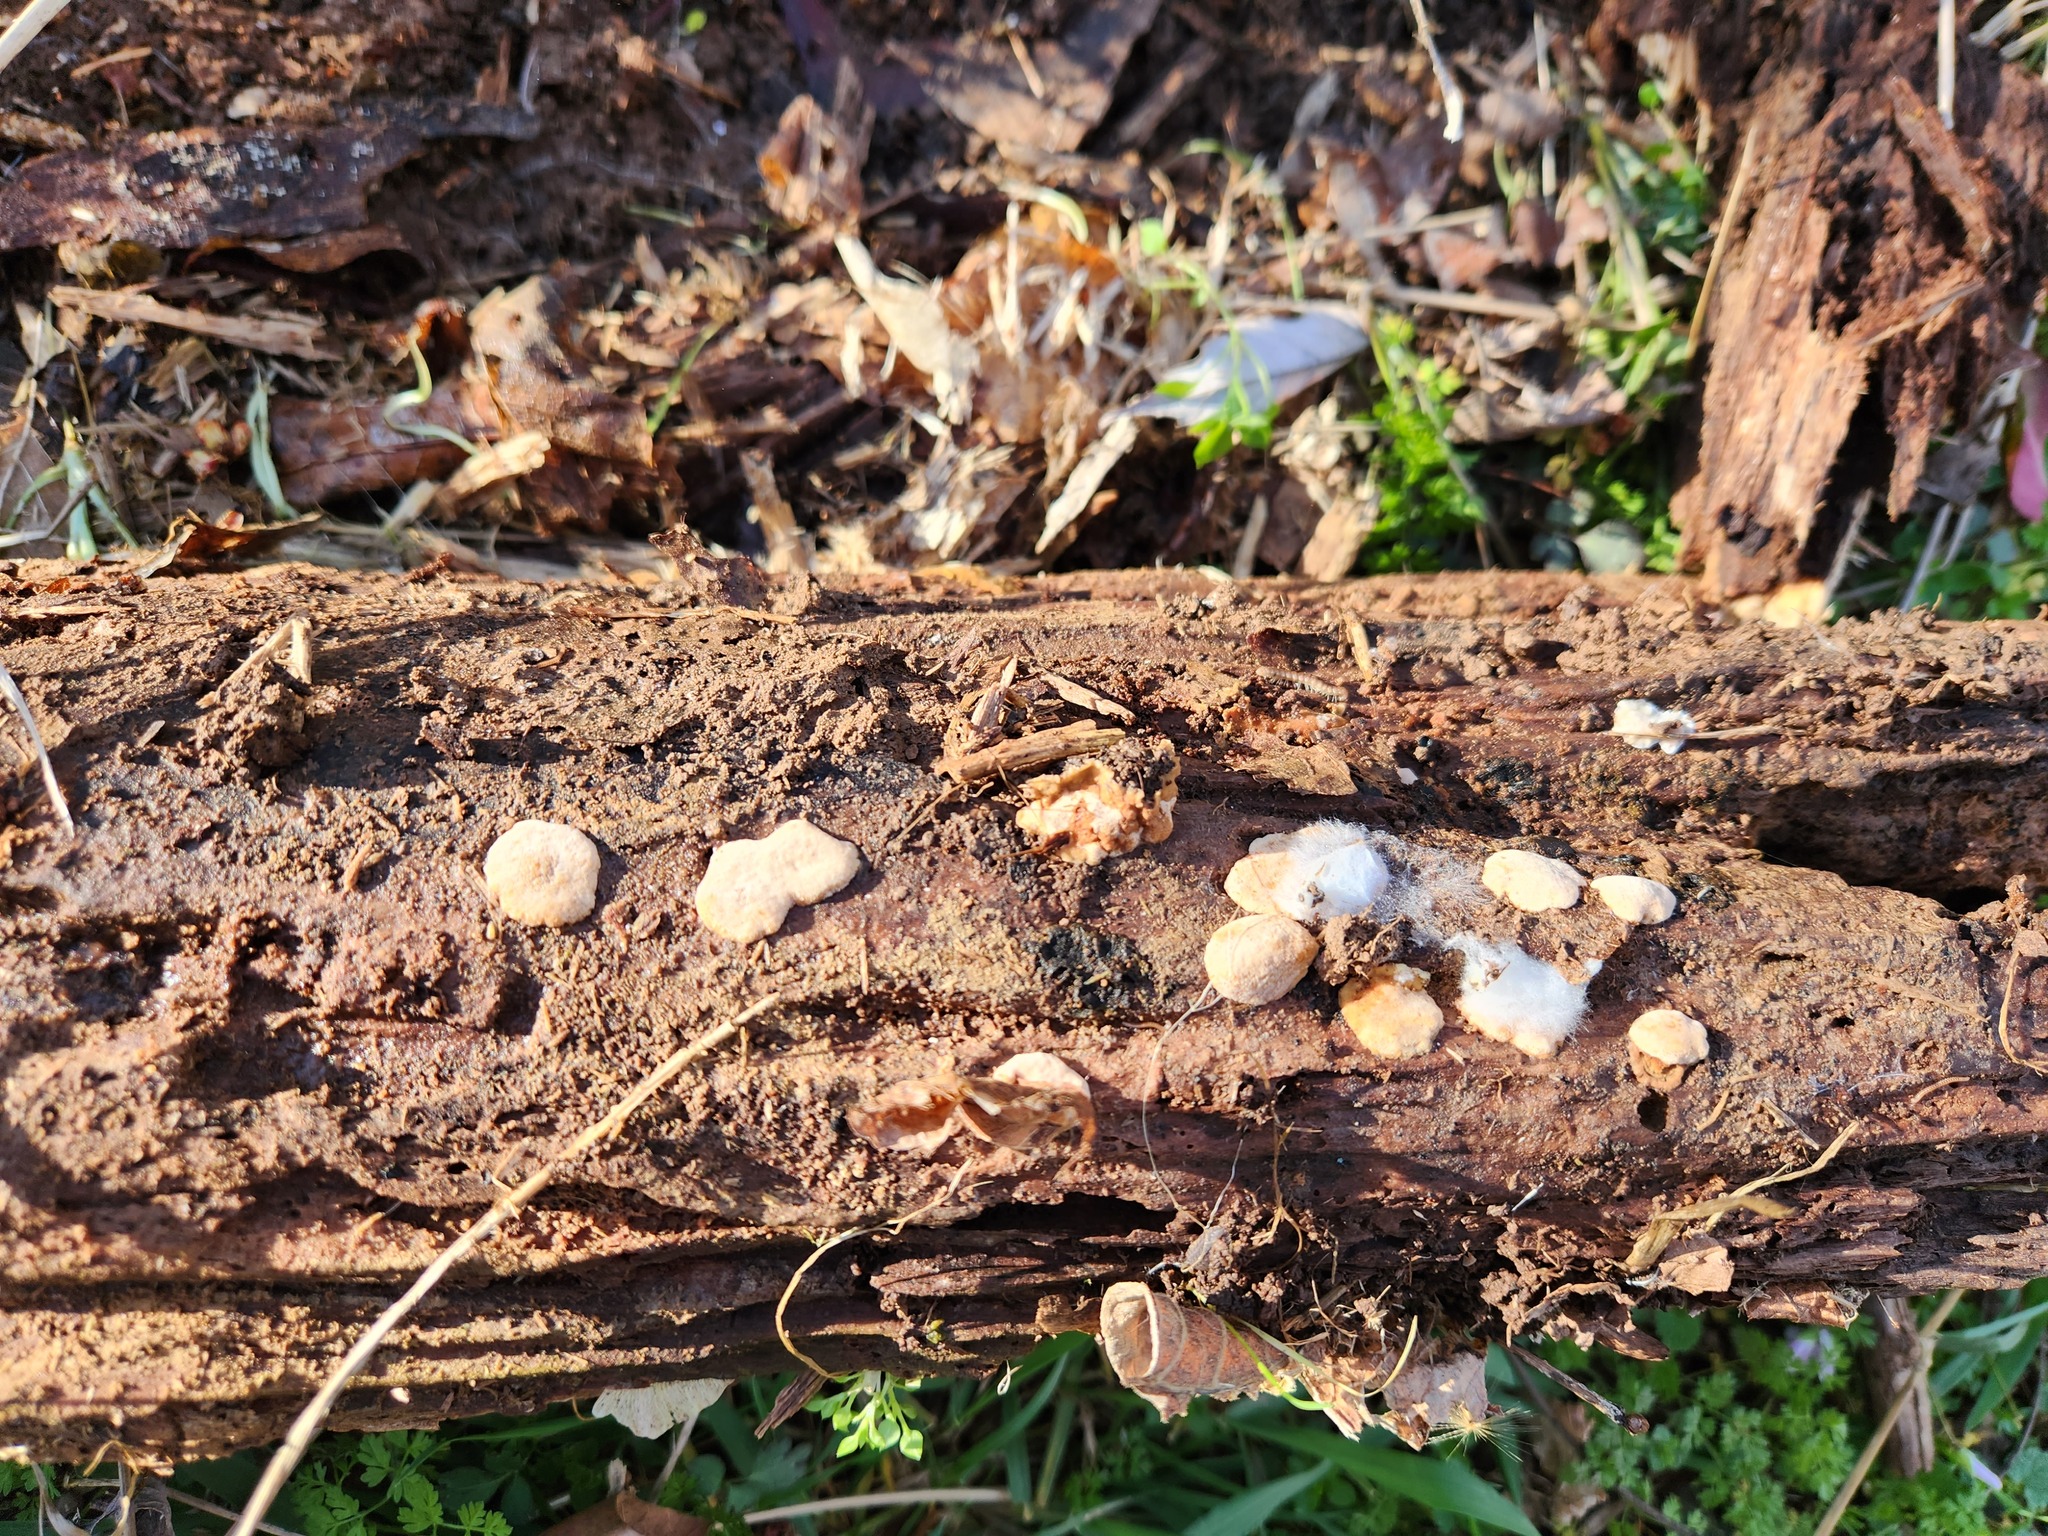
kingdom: Fungi
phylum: Ascomycota
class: Sordariomycetes
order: Hypocreales
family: Hypocreaceae
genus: Trichoderma
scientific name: Trichoderma viride
